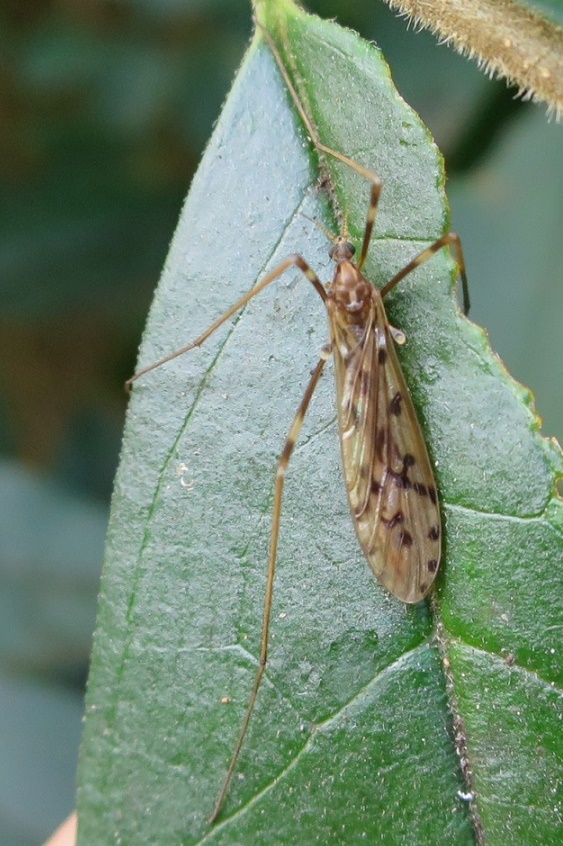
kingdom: Animalia
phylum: Arthropoda
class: Insecta
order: Diptera
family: Limoniidae
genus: Austrolimnophila
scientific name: Austrolimnophila agathicola
